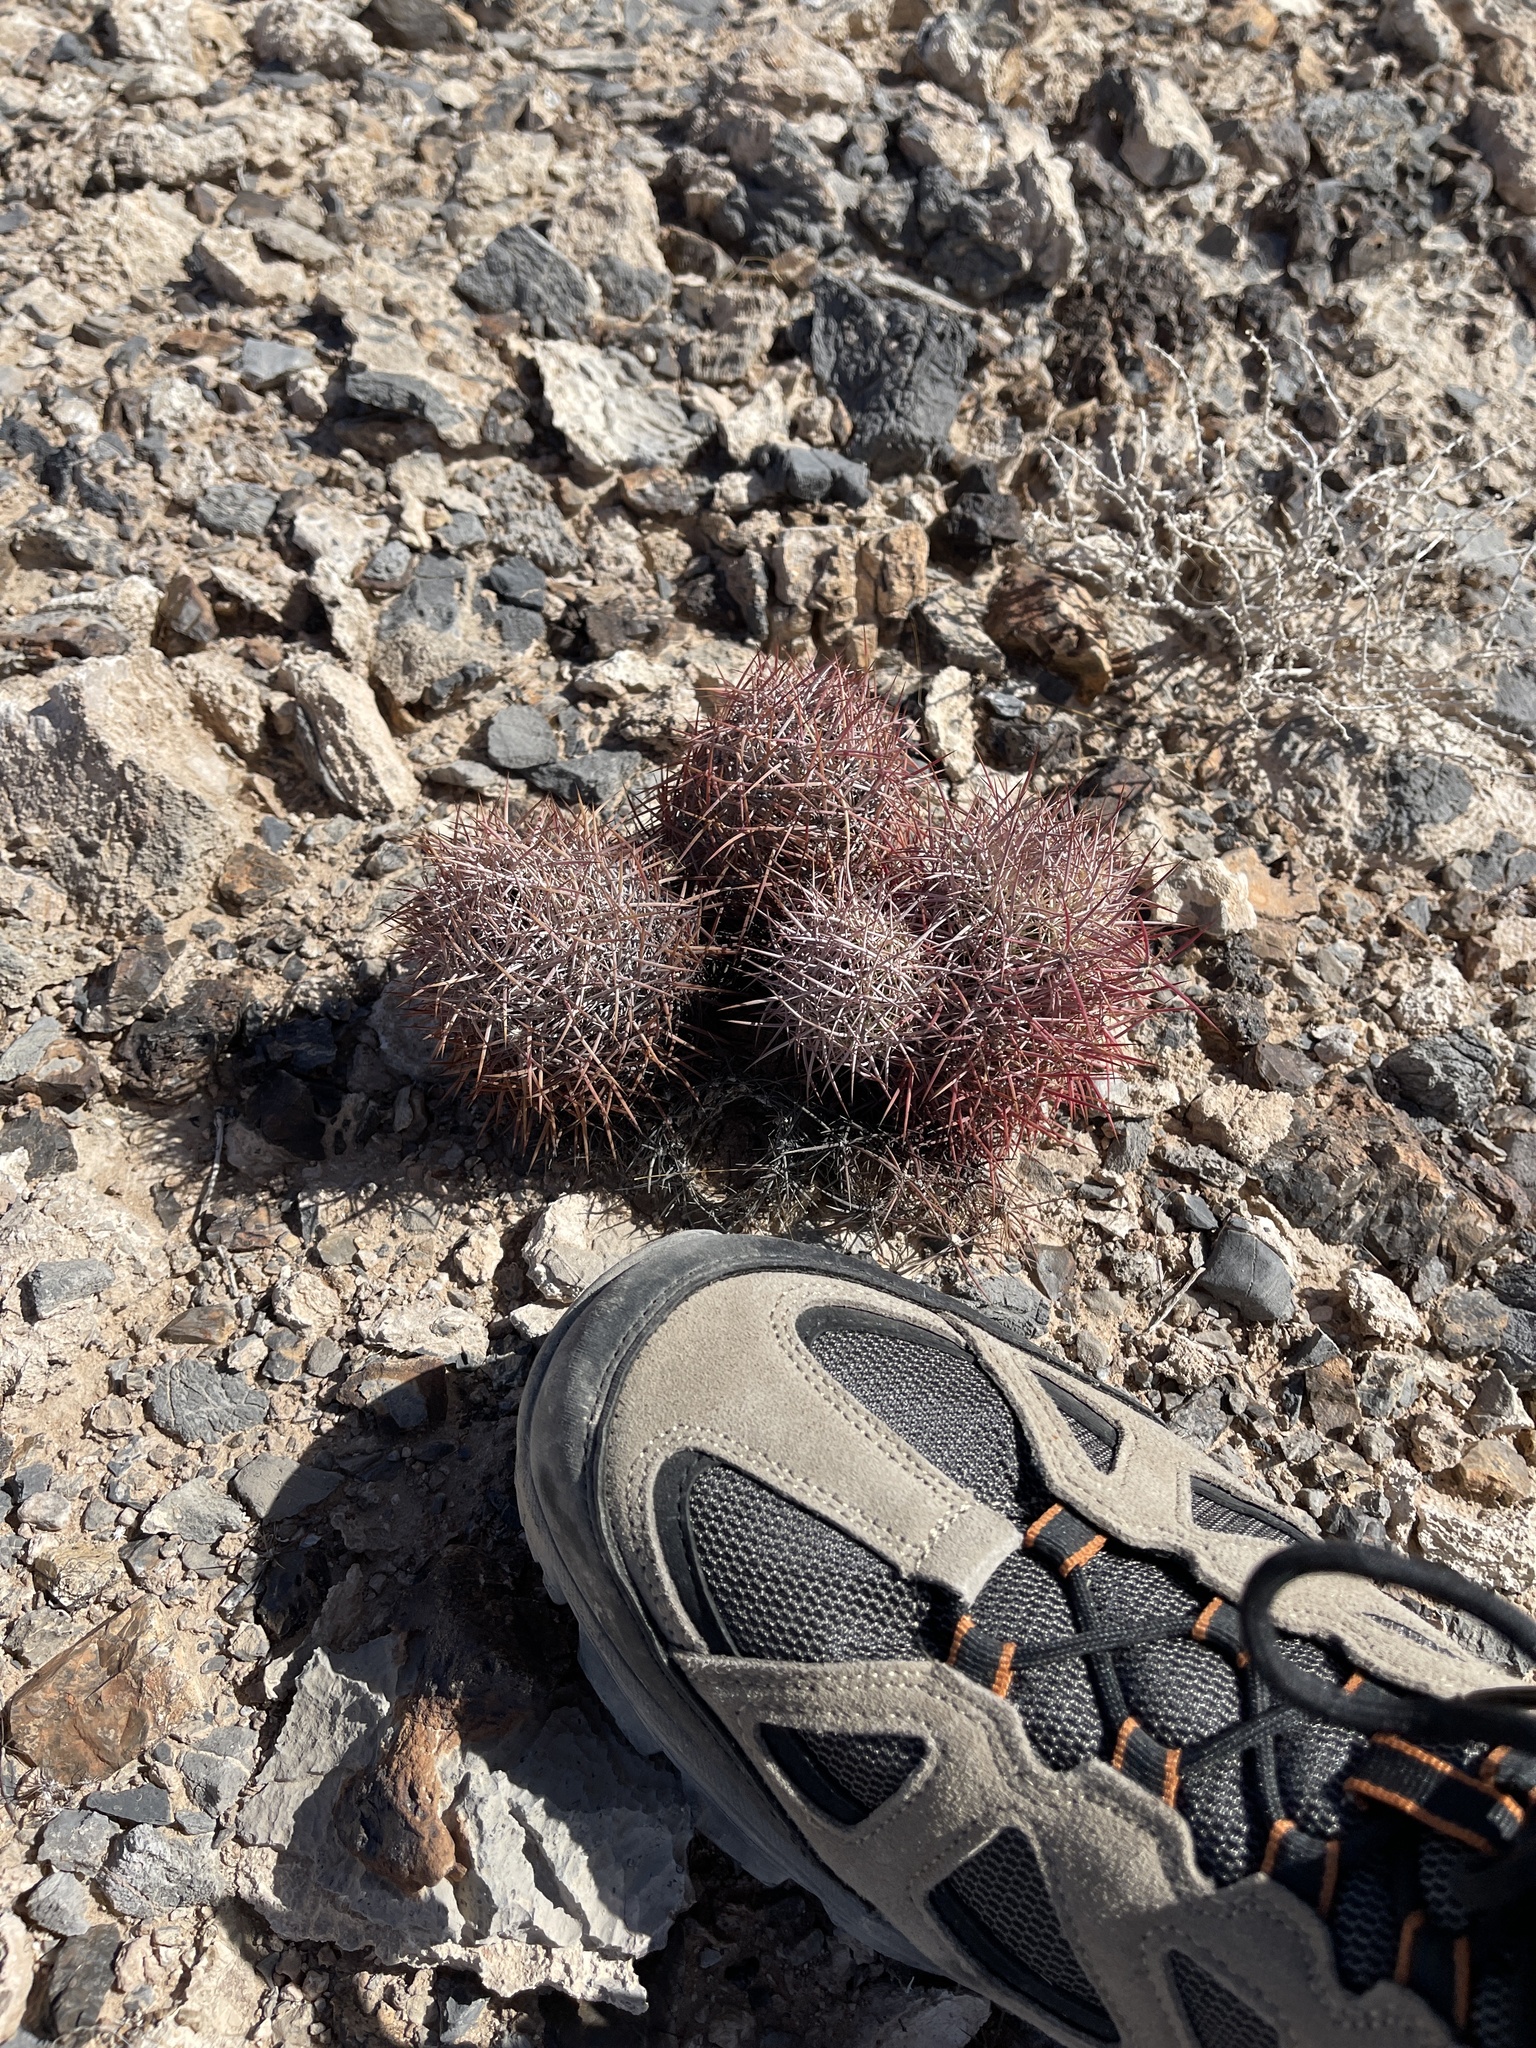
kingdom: Plantae
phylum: Tracheophyta
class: Magnoliopsida
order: Caryophyllales
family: Cactaceae
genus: Sclerocactus
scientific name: Sclerocactus johnsonii
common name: Eight-spine fishhook cactus
